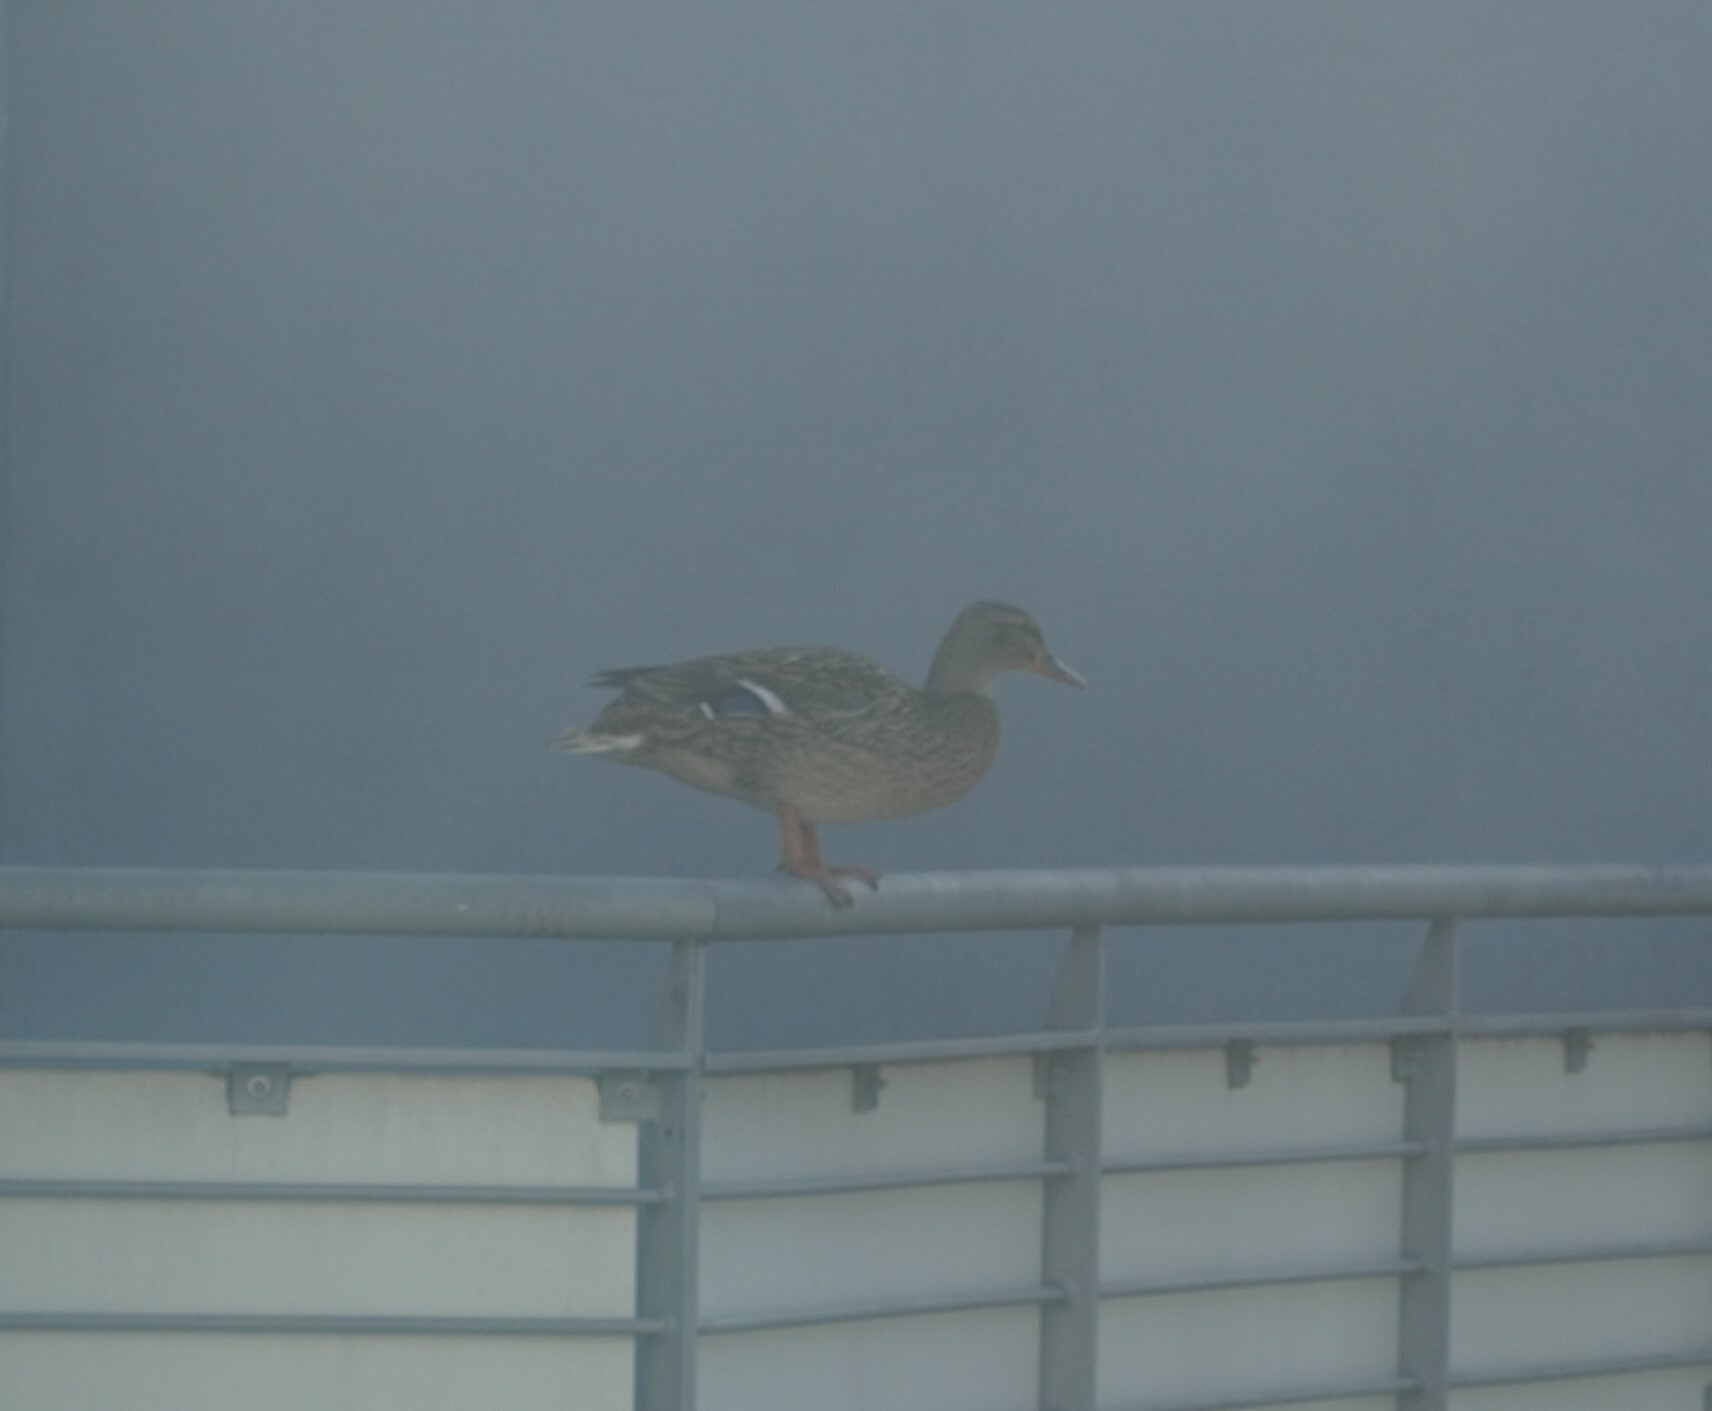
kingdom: Animalia
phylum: Chordata
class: Aves
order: Anseriformes
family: Anatidae
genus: Anas
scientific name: Anas platyrhynchos
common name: Mallard
